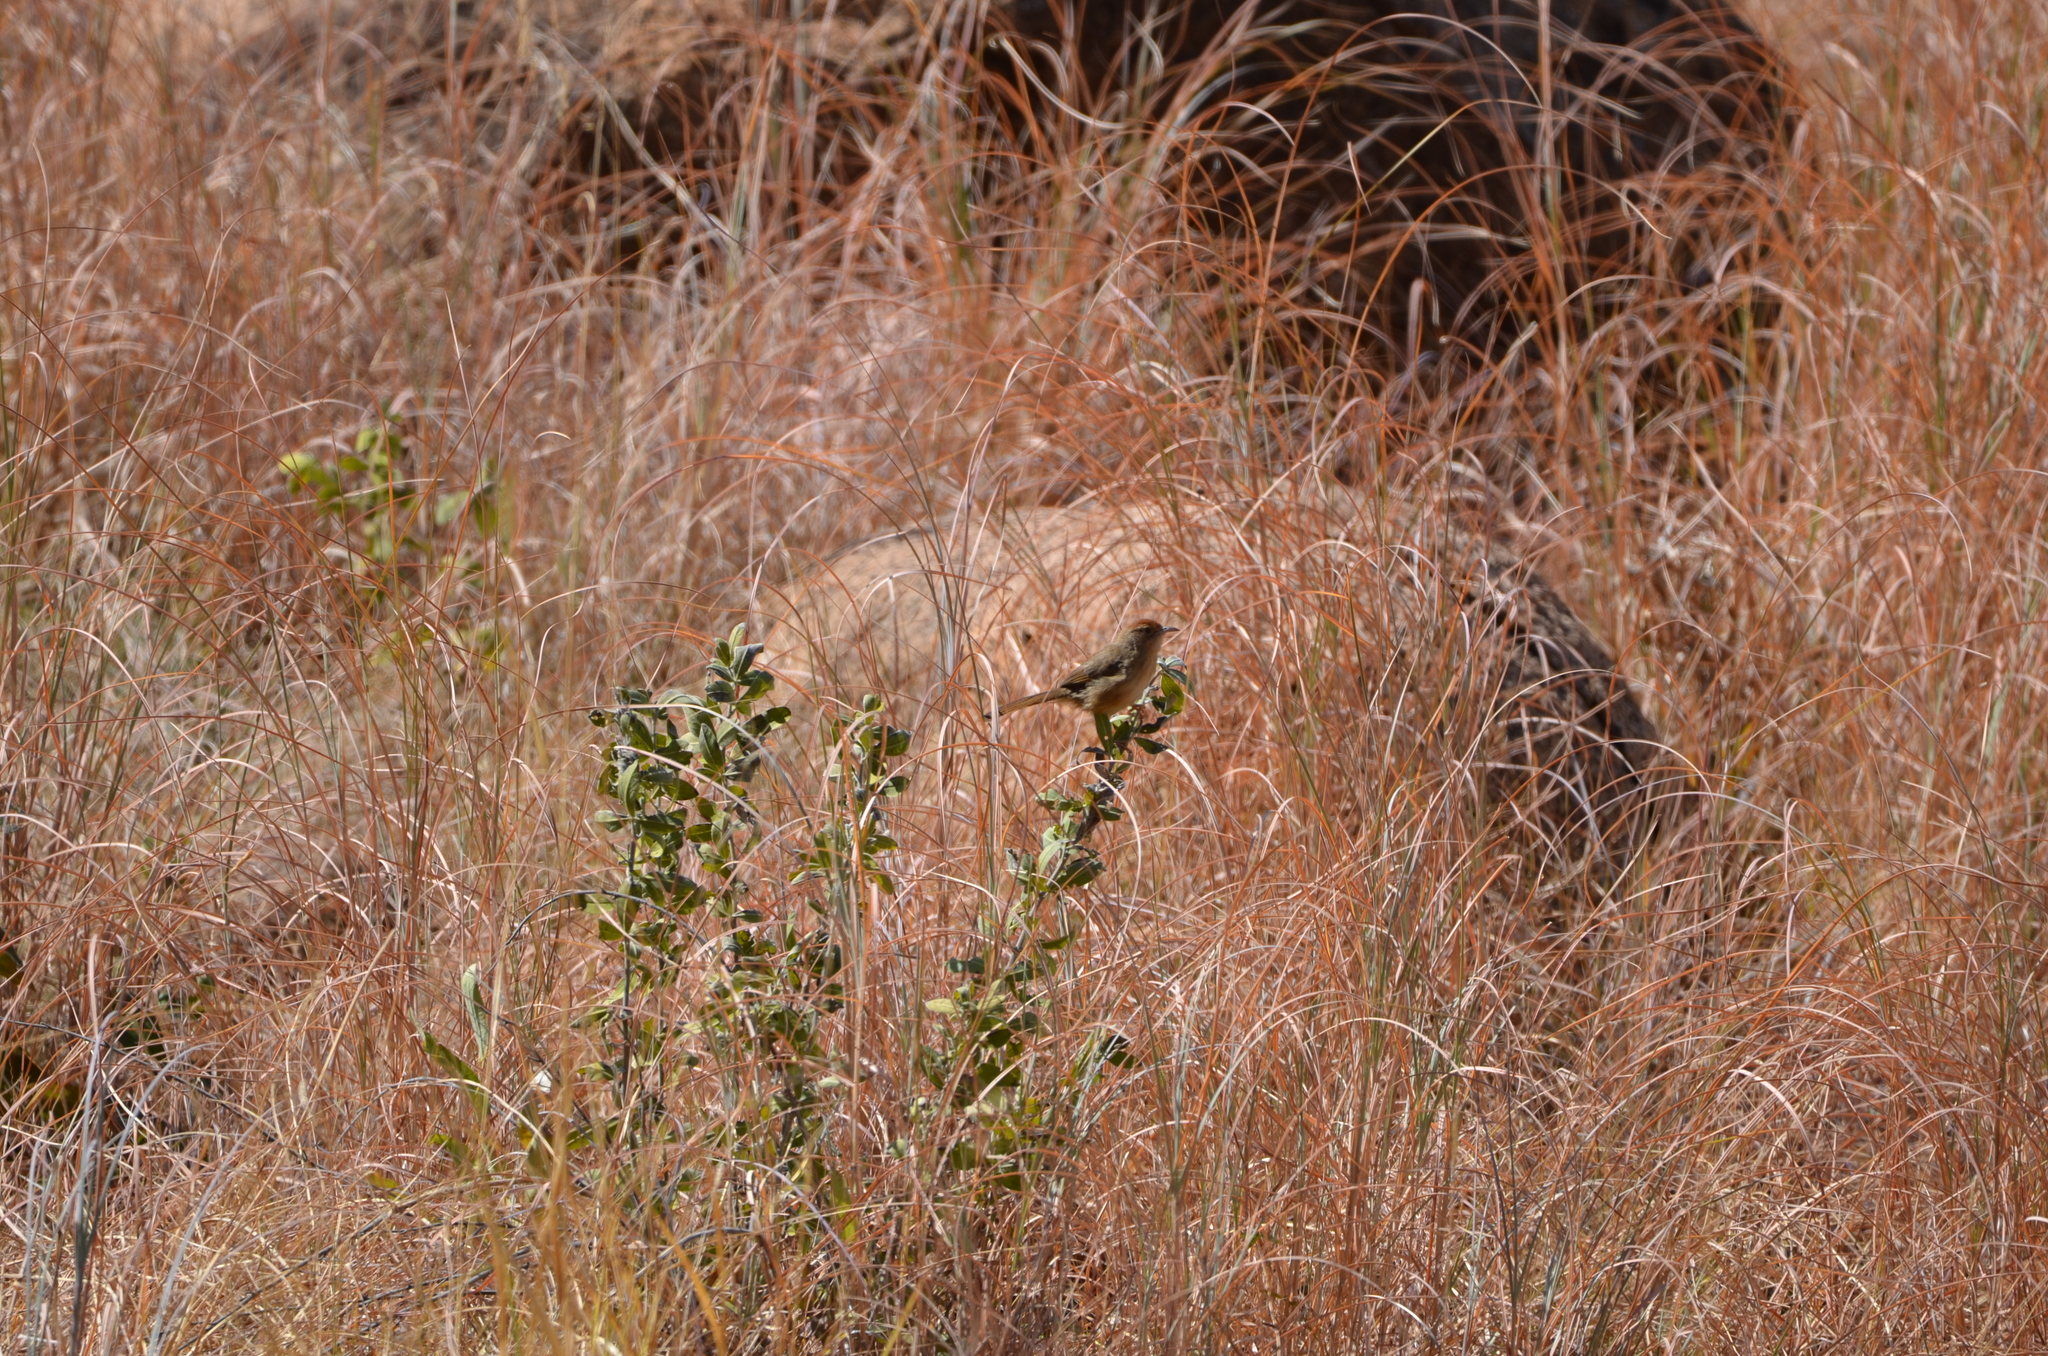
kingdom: Animalia
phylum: Chordata
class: Aves
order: Passeriformes
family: Cisticolidae
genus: Cisticola
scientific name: Cisticola aberrans
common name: Lazy cisticola
